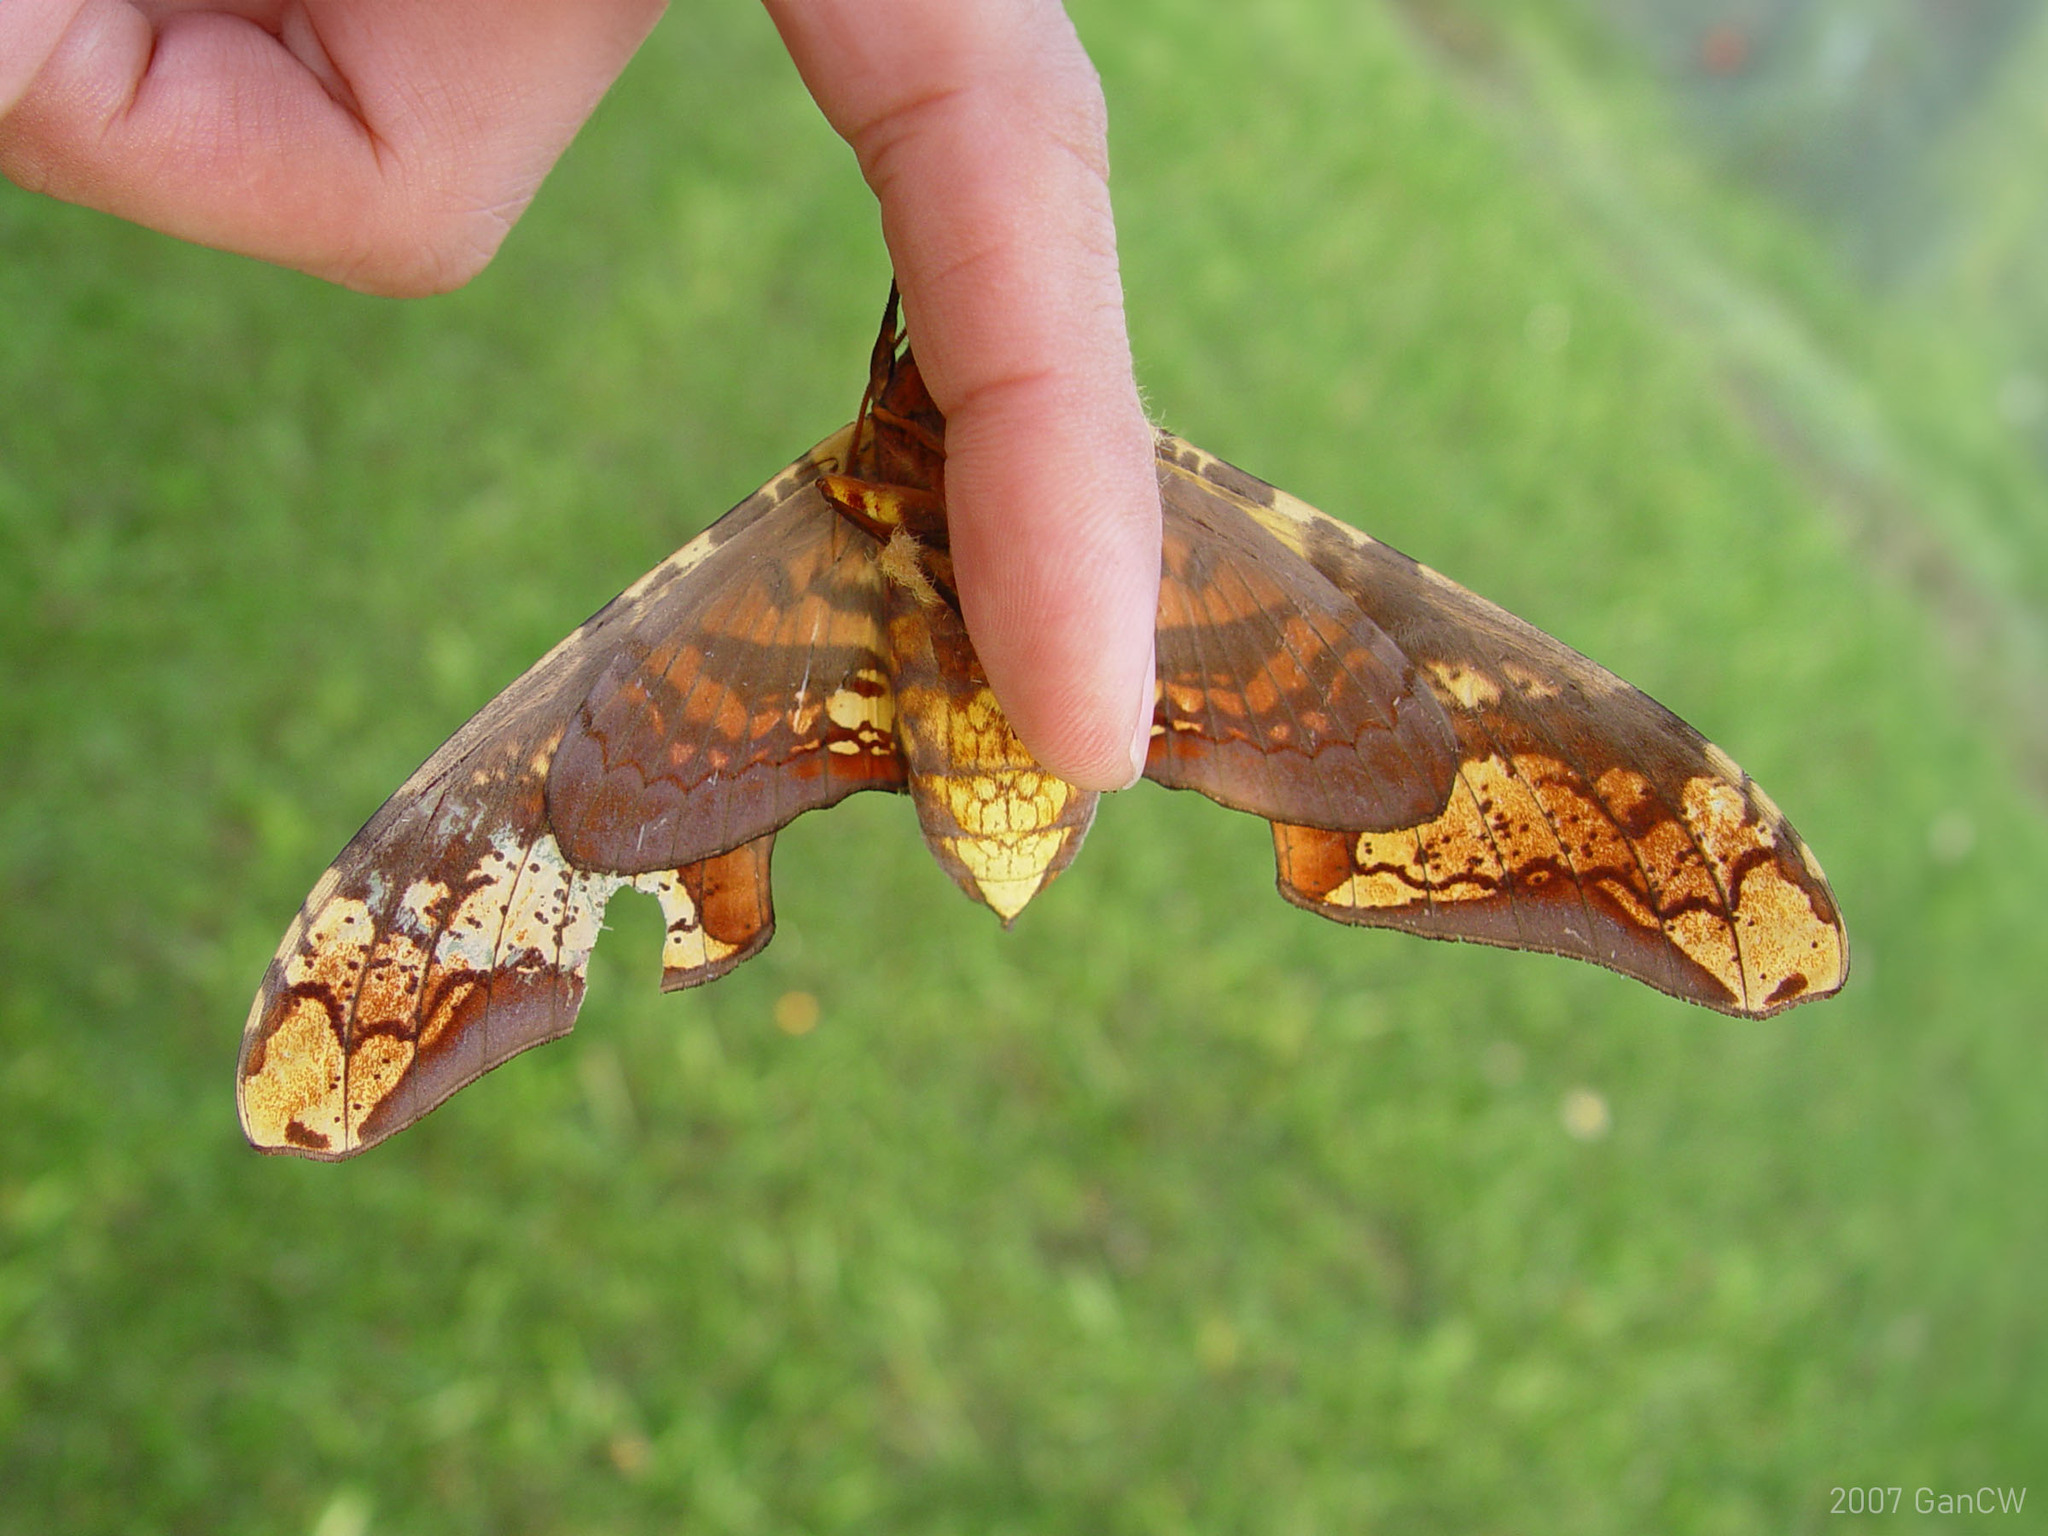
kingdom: Animalia
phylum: Arthropoda
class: Insecta
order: Lepidoptera
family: Sphingidae
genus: Amplypterus
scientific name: Amplypterus panopus
